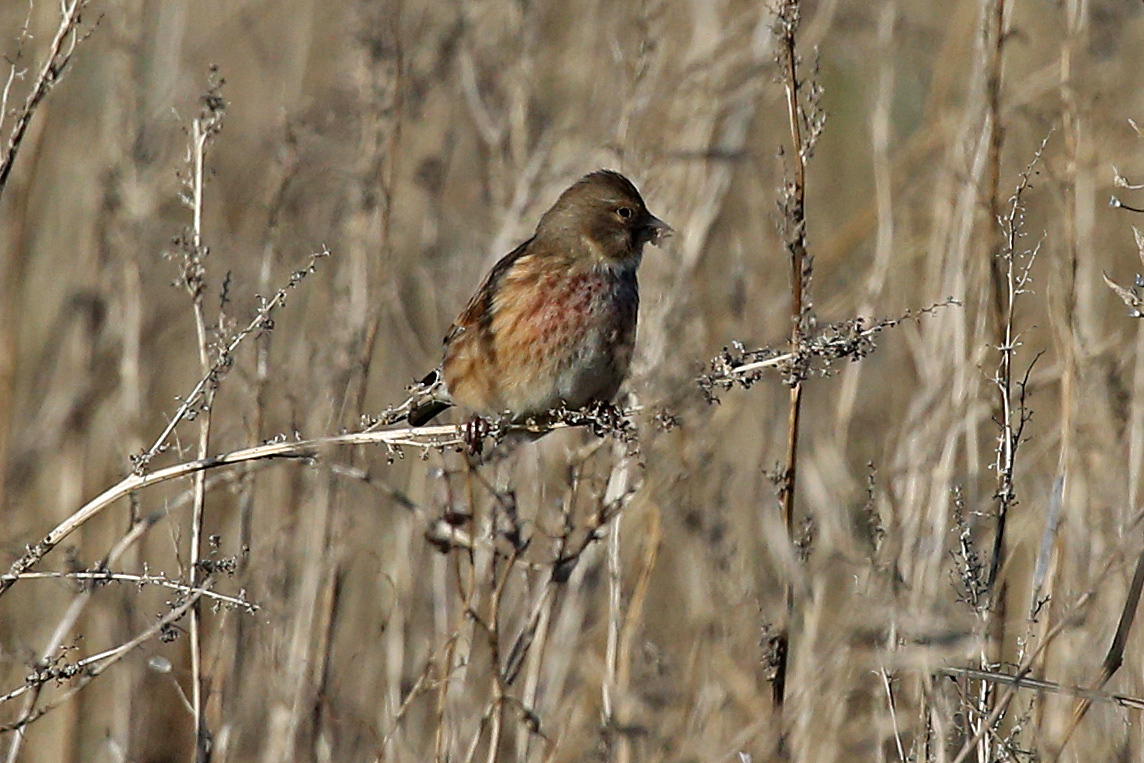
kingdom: Animalia
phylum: Chordata
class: Aves
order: Passeriformes
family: Fringillidae
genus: Linaria
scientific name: Linaria cannabina
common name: Common linnet
